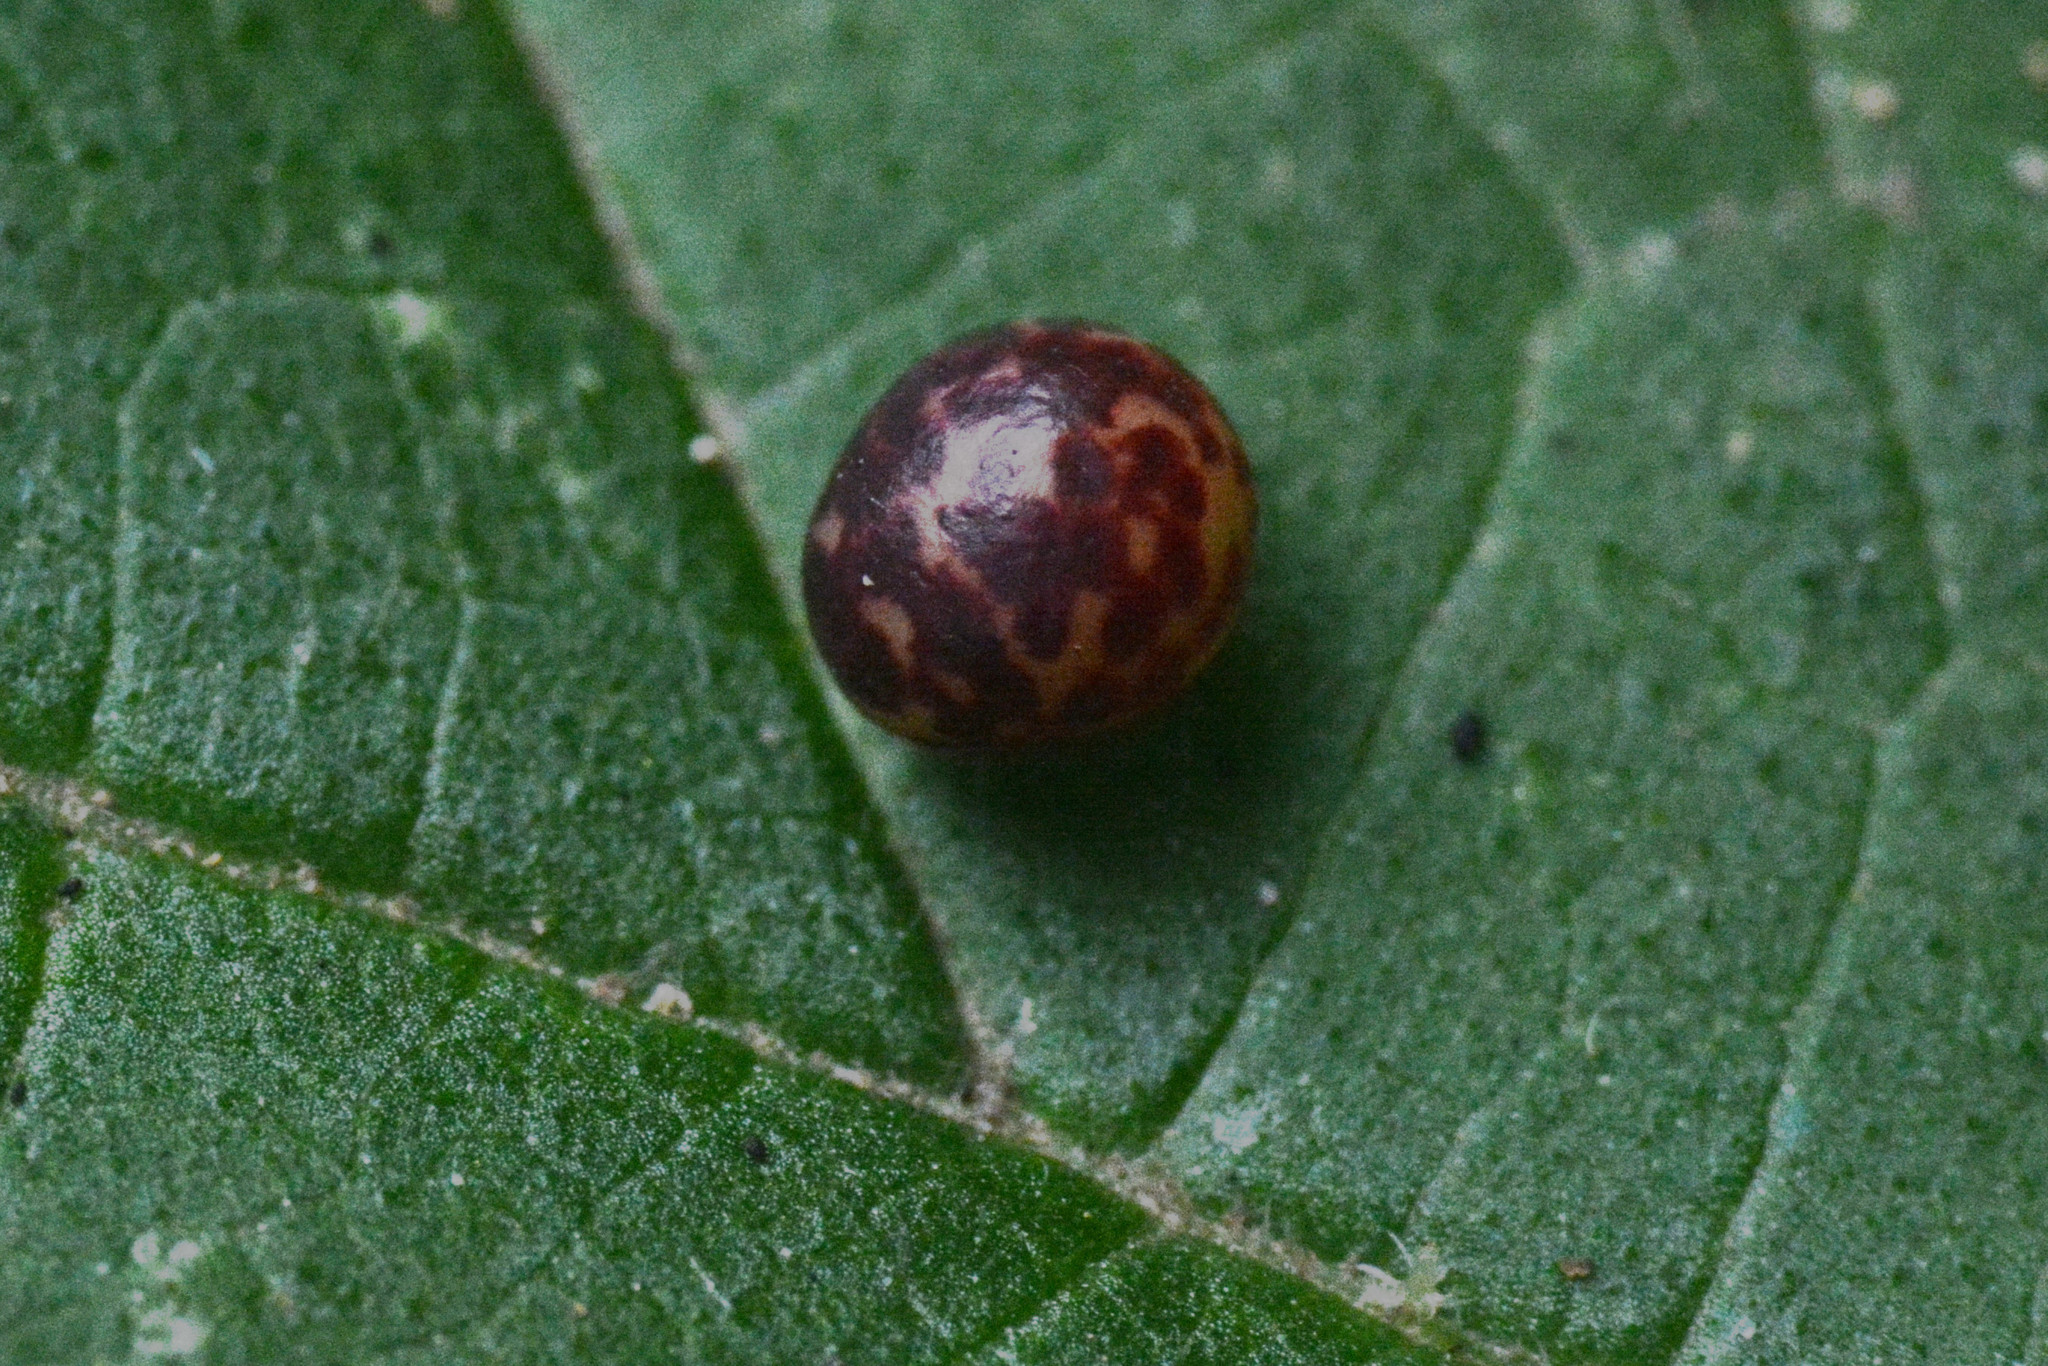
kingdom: Animalia
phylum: Arthropoda
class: Insecta
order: Hymenoptera
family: Cynipidae
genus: Neuroterus
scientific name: Neuroterus anthracinus
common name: Oyster gall
